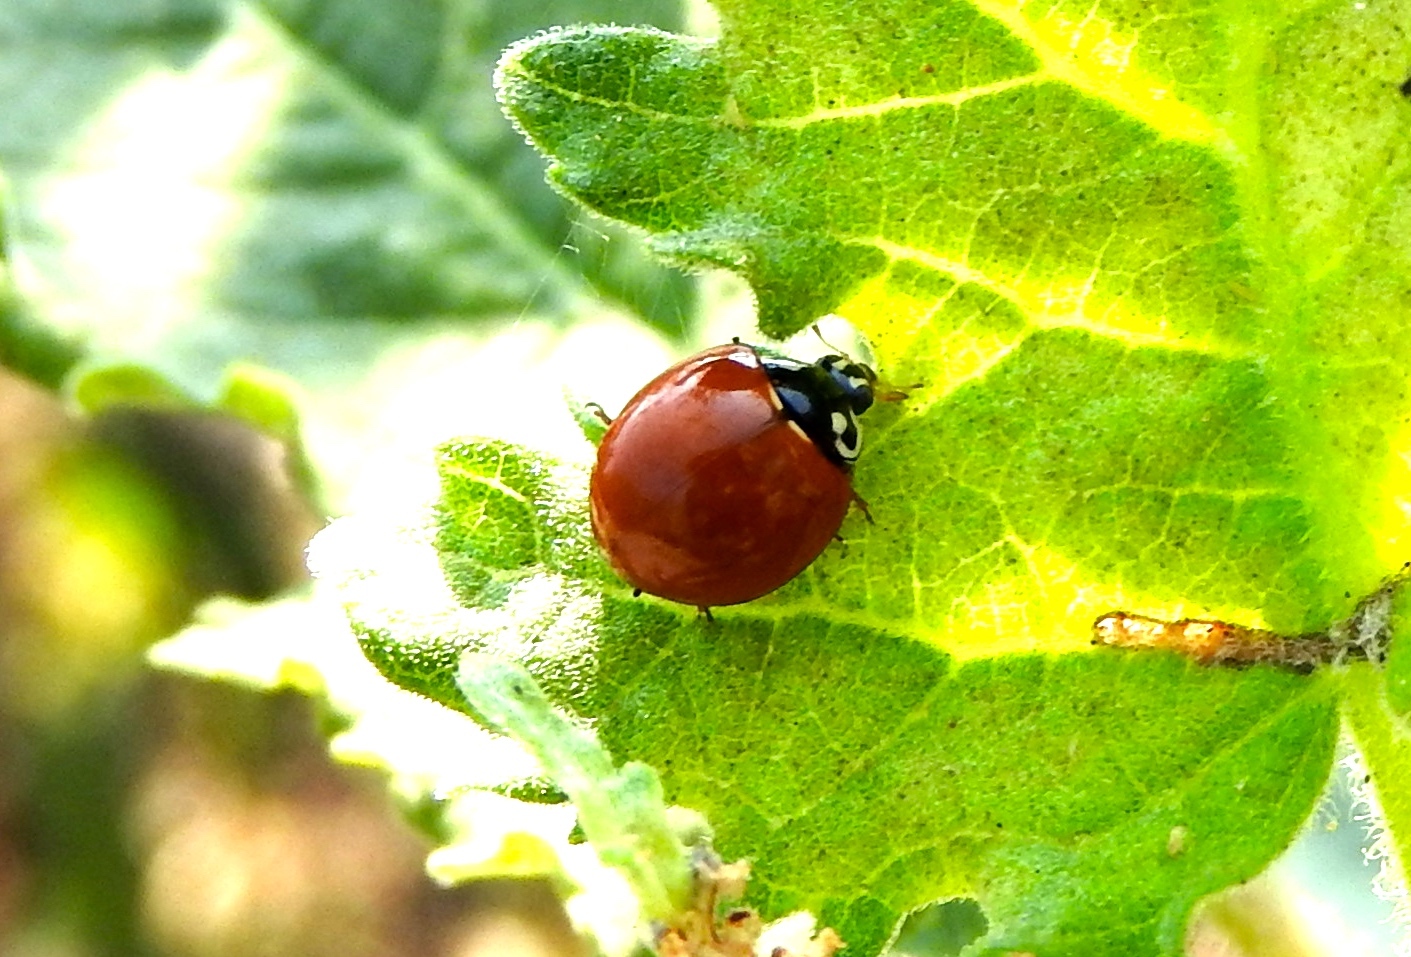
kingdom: Animalia
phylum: Arthropoda
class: Insecta
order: Coleoptera
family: Coccinellidae
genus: Cycloneda
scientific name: Cycloneda sanguinea
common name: Ladybird beetle
